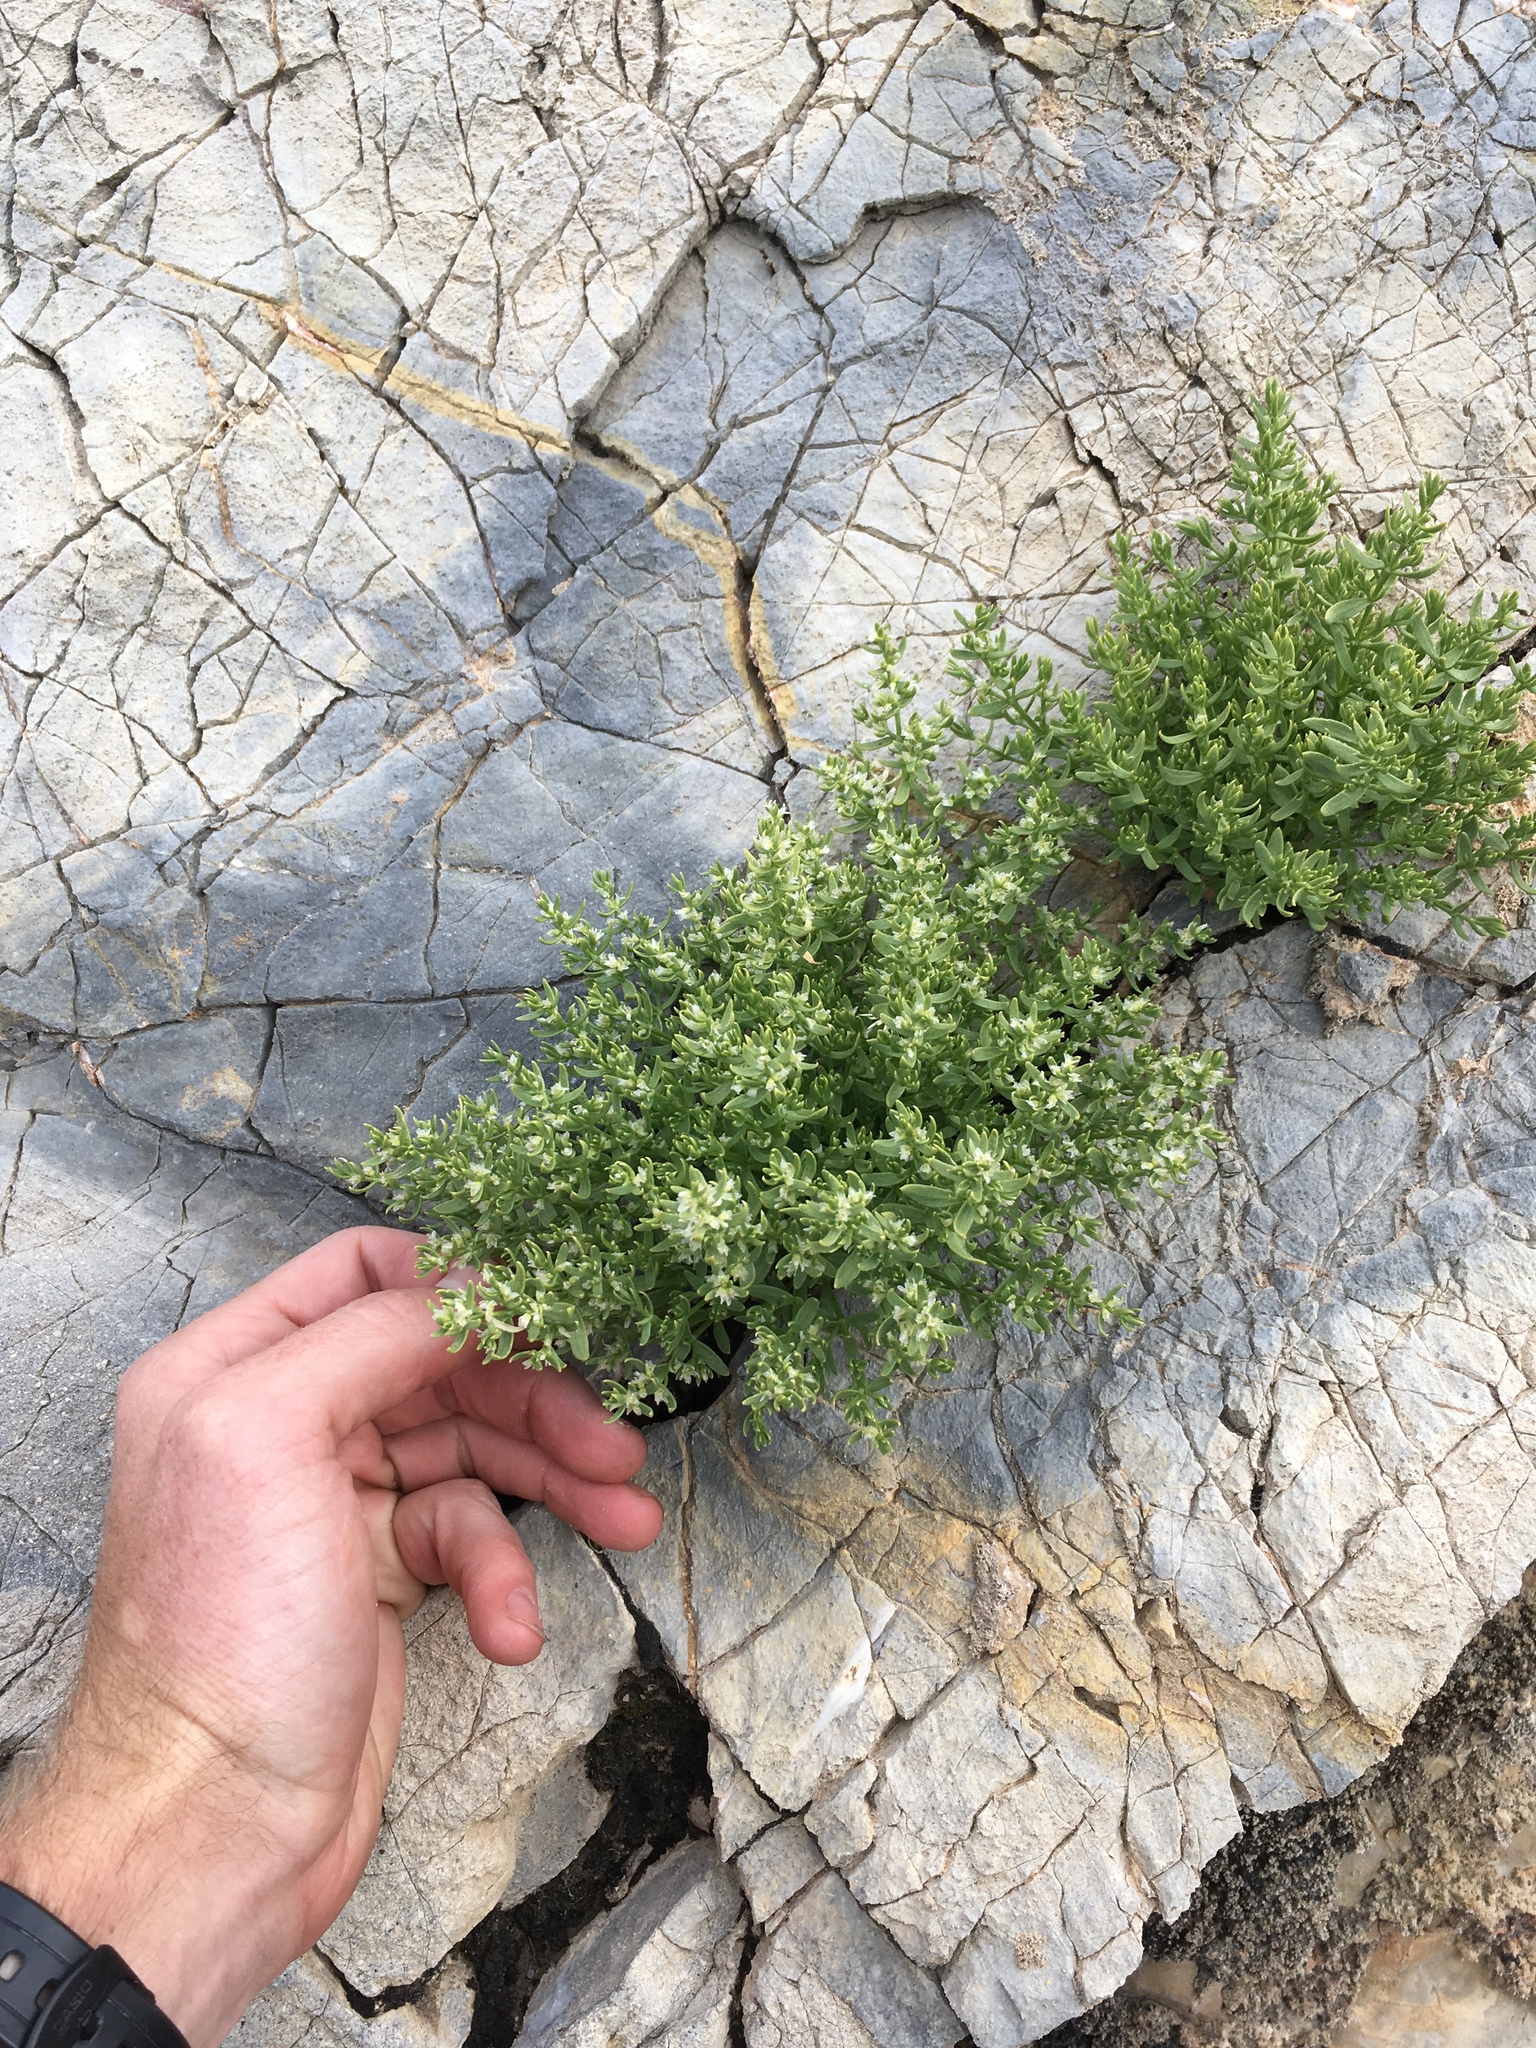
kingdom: Plantae
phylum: Tracheophyta
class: Magnoliopsida
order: Caryophyllales
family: Caryophyllaceae
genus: Scopulophila
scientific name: Scopulophila rixfordii
